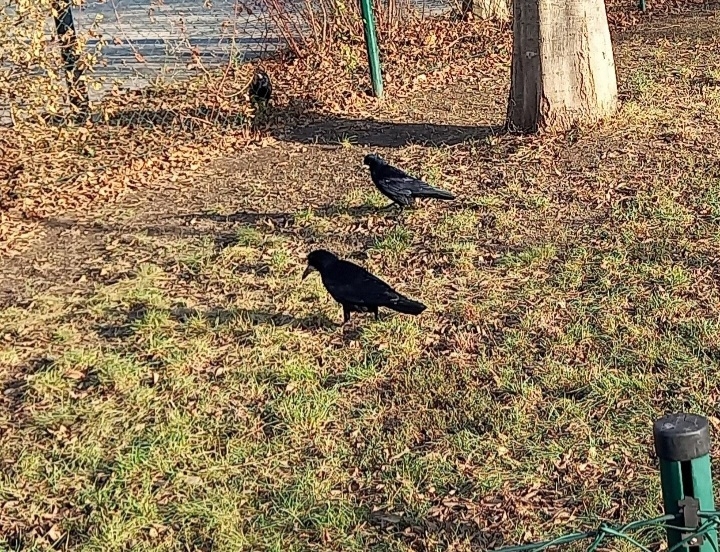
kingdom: Animalia
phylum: Chordata
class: Aves
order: Passeriformes
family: Corvidae
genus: Corvus
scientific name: Corvus frugilegus
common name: Rook
